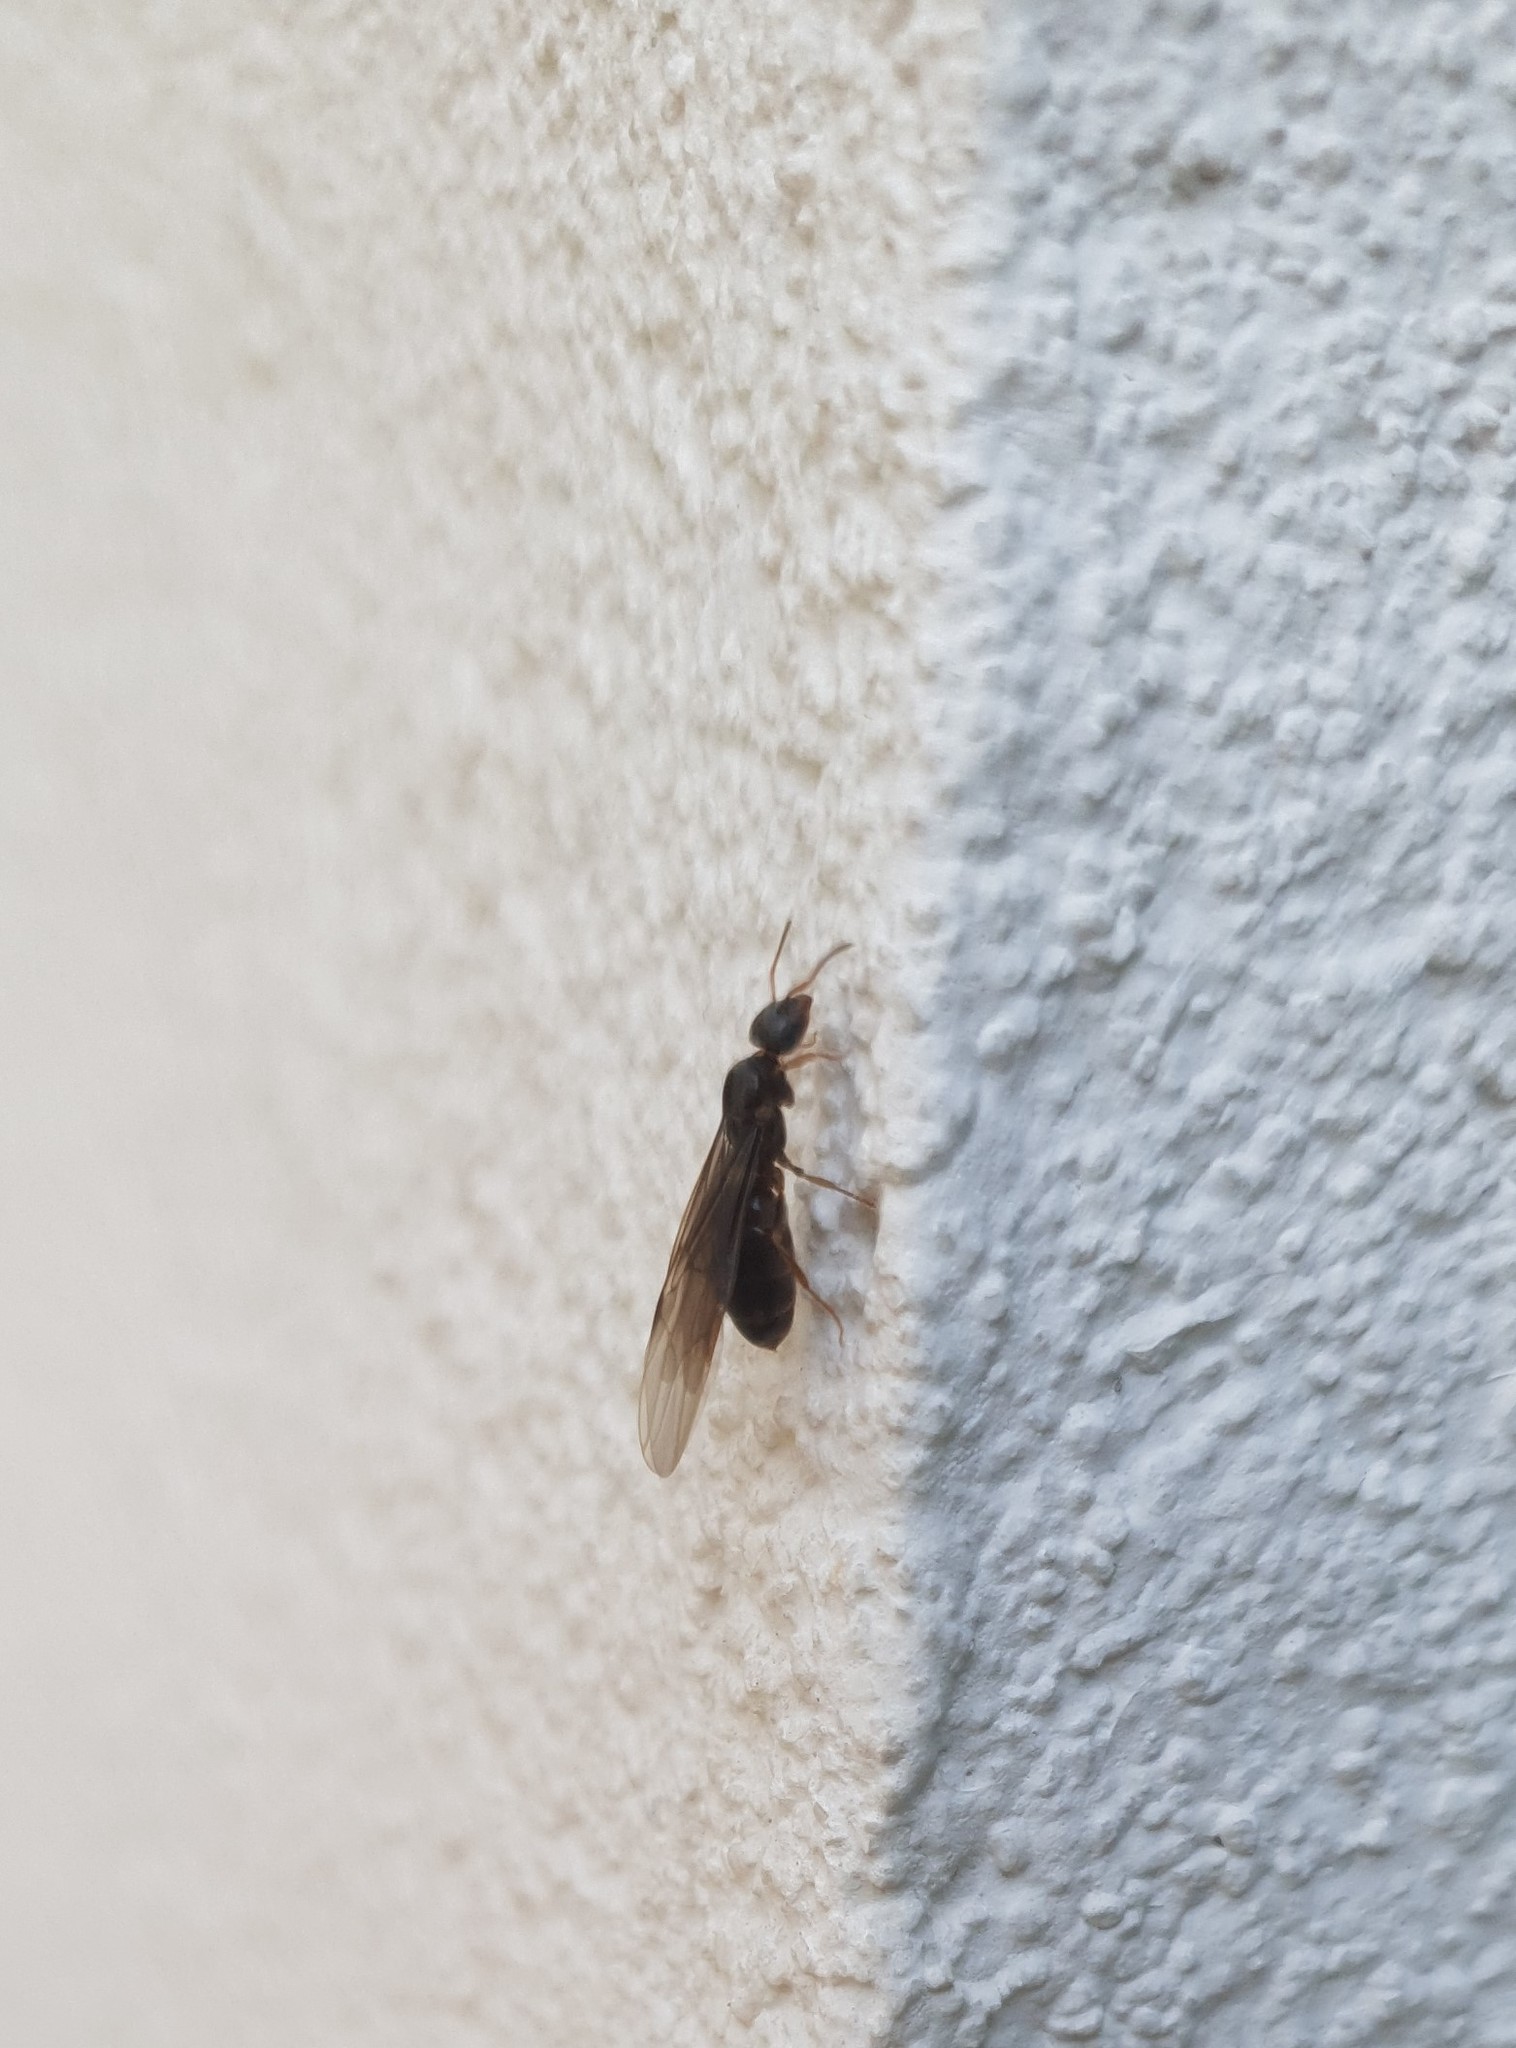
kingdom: Animalia
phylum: Arthropoda
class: Insecta
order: Hymenoptera
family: Formicidae
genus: Lasius
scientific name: Lasius
